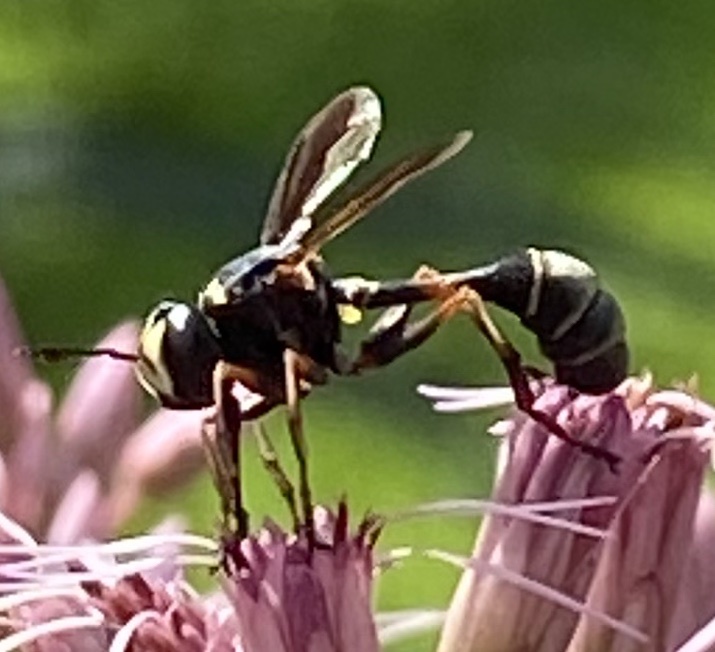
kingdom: Animalia
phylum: Arthropoda
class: Insecta
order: Diptera
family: Conopidae
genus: Physocephala
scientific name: Physocephala marginata
